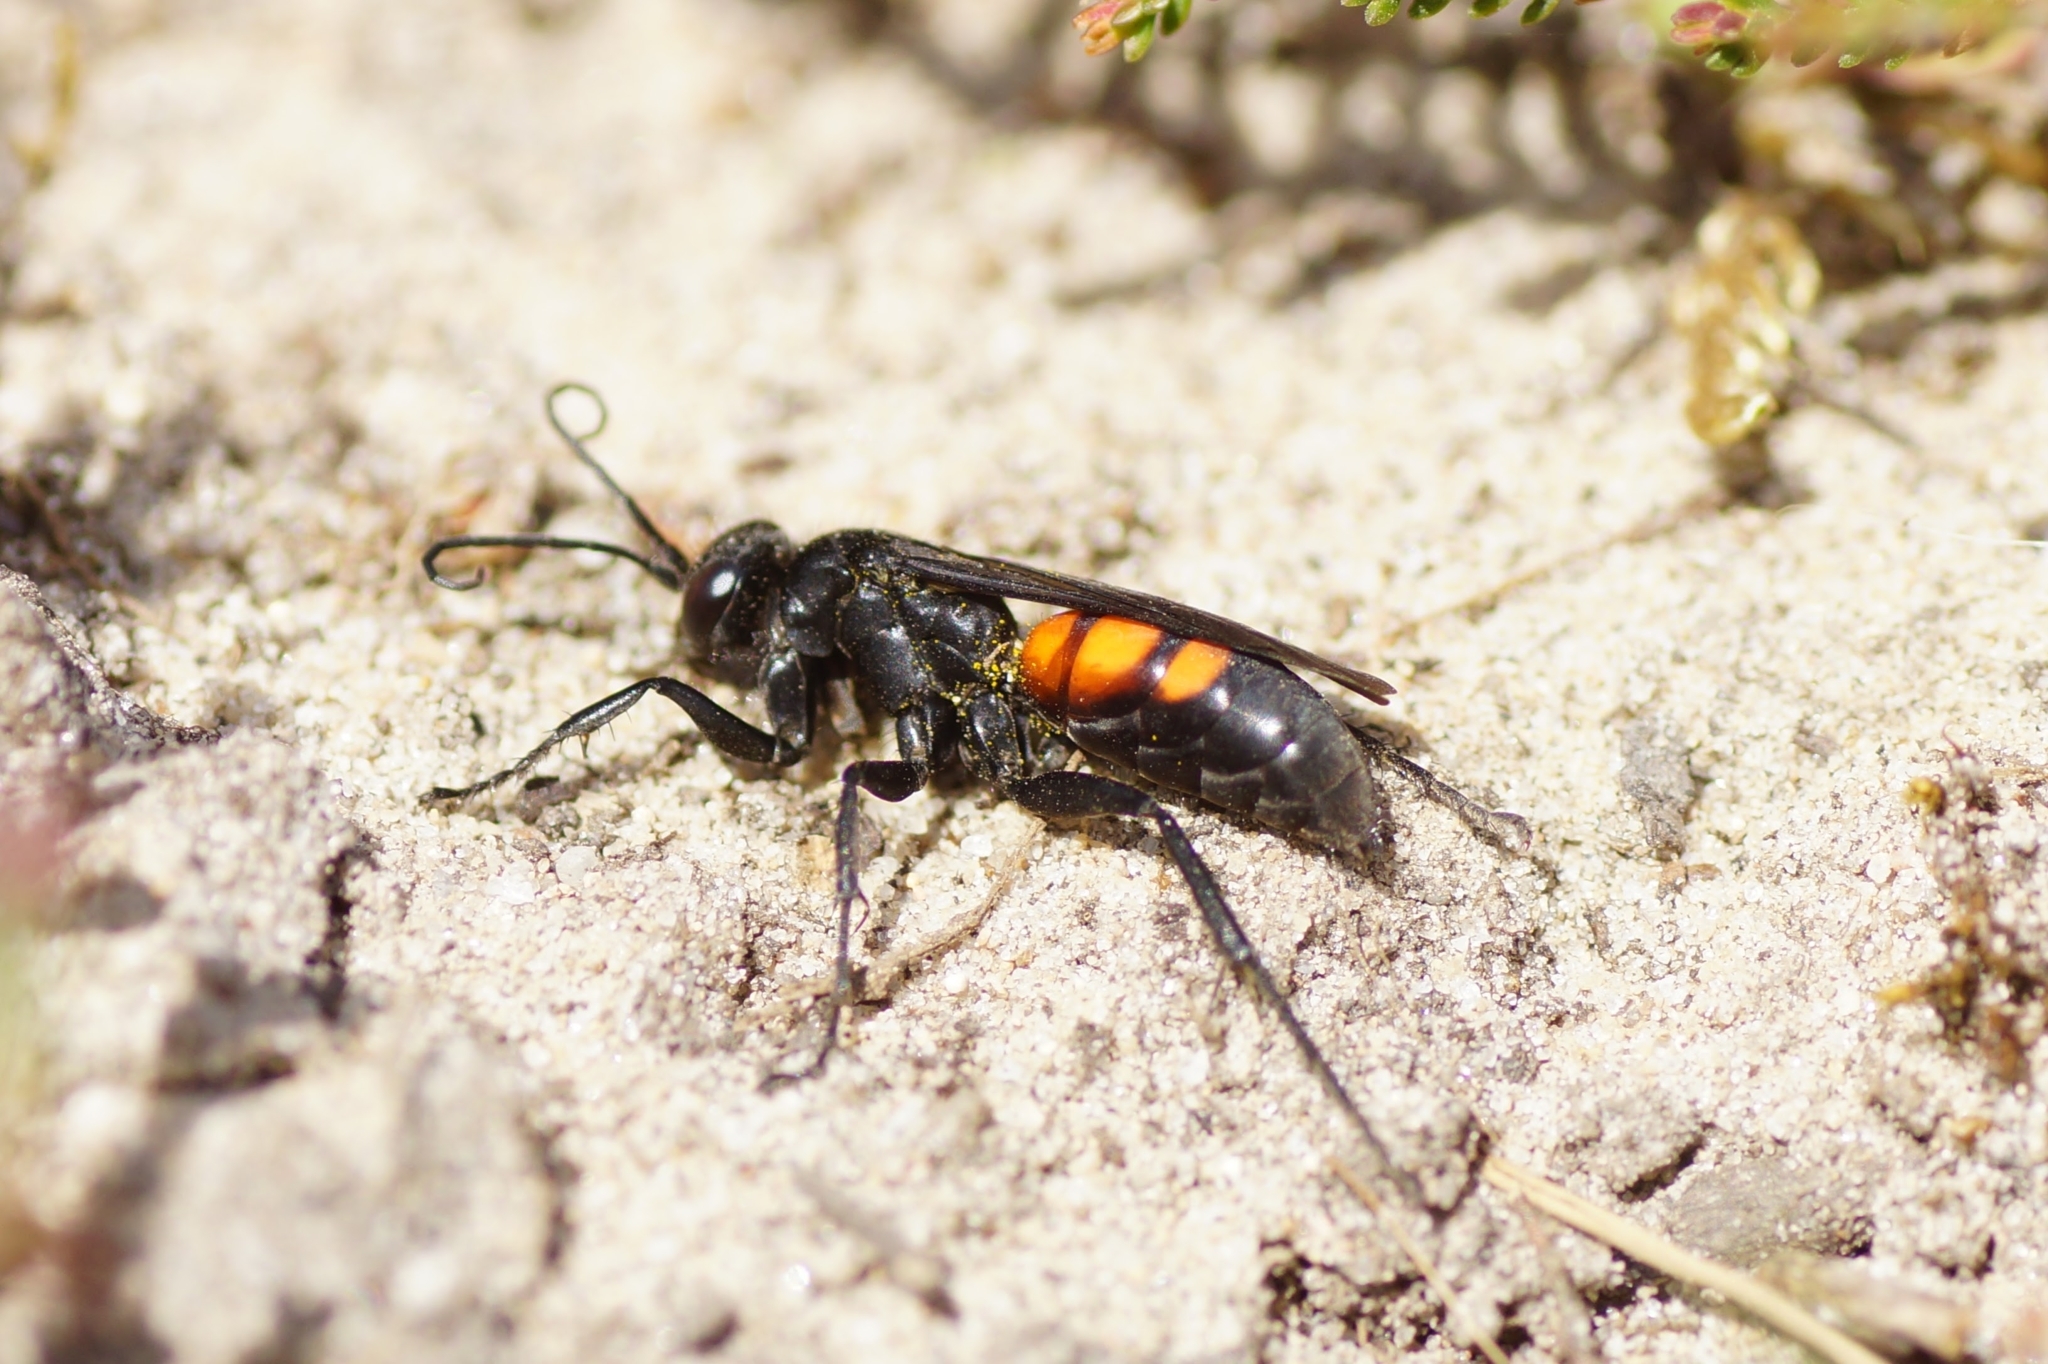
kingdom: Animalia
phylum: Arthropoda
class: Insecta
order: Hymenoptera
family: Pompilidae
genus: Anoplius
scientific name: Anoplius viaticus
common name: Black banded spider wasp
